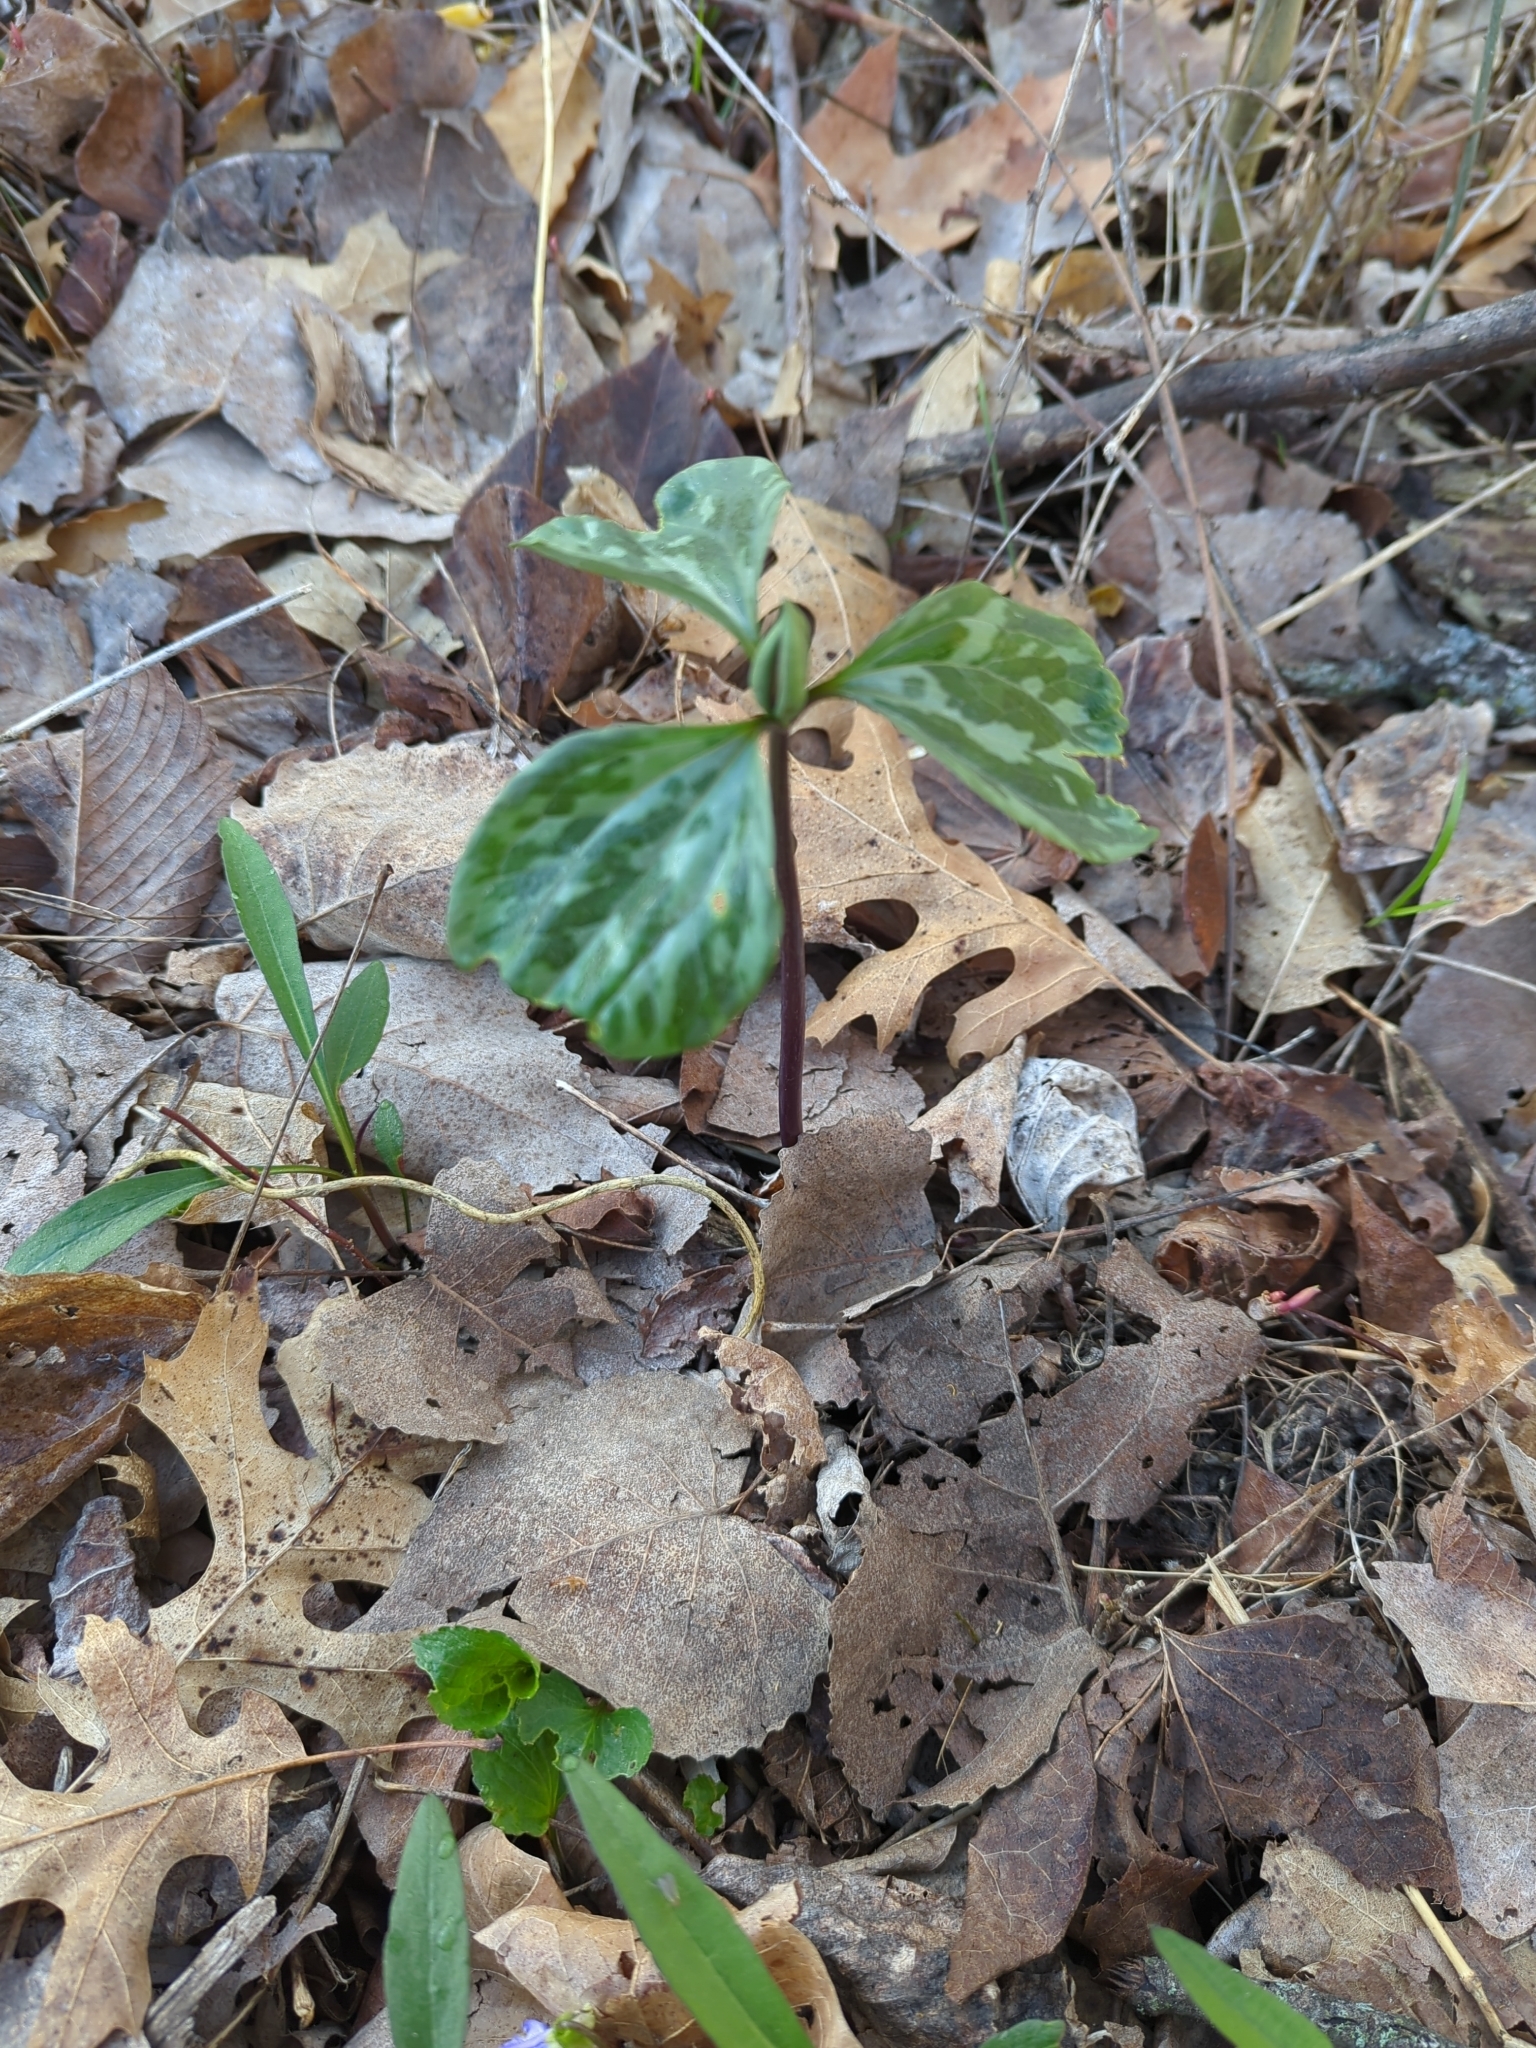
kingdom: Plantae
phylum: Tracheophyta
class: Liliopsida
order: Liliales
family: Melanthiaceae
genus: Trillium
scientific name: Trillium recurvatum
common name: Bloody butcher
